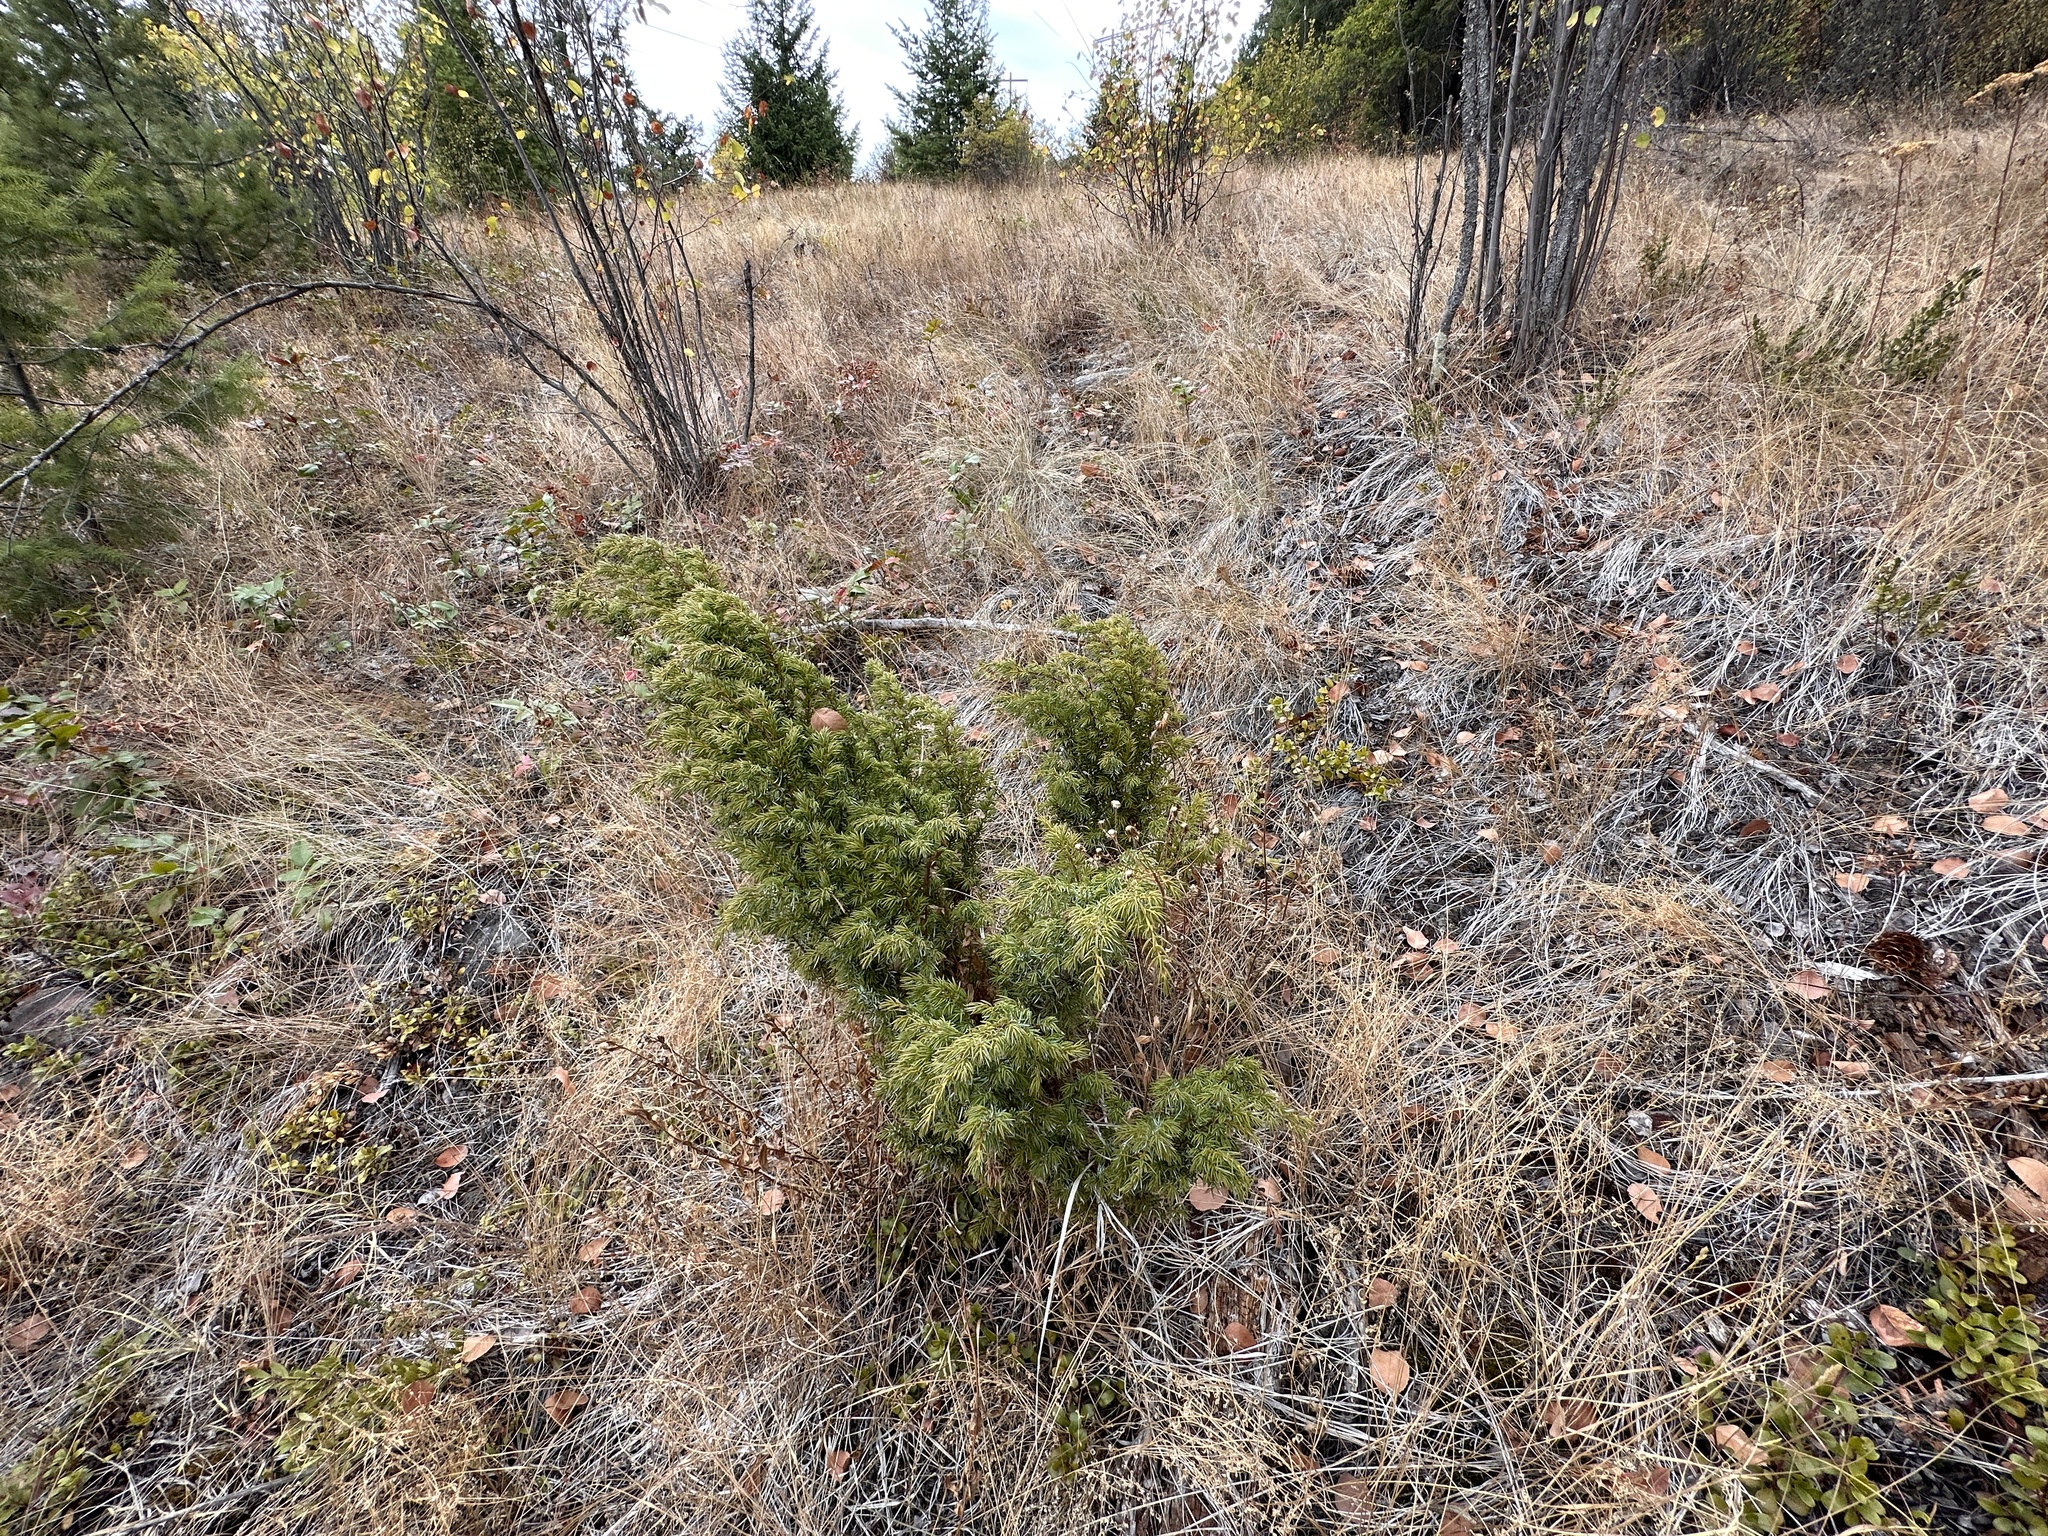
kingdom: Plantae
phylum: Tracheophyta
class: Pinopsida
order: Pinales
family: Cupressaceae
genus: Juniperus
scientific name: Juniperus communis
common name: Common juniper
